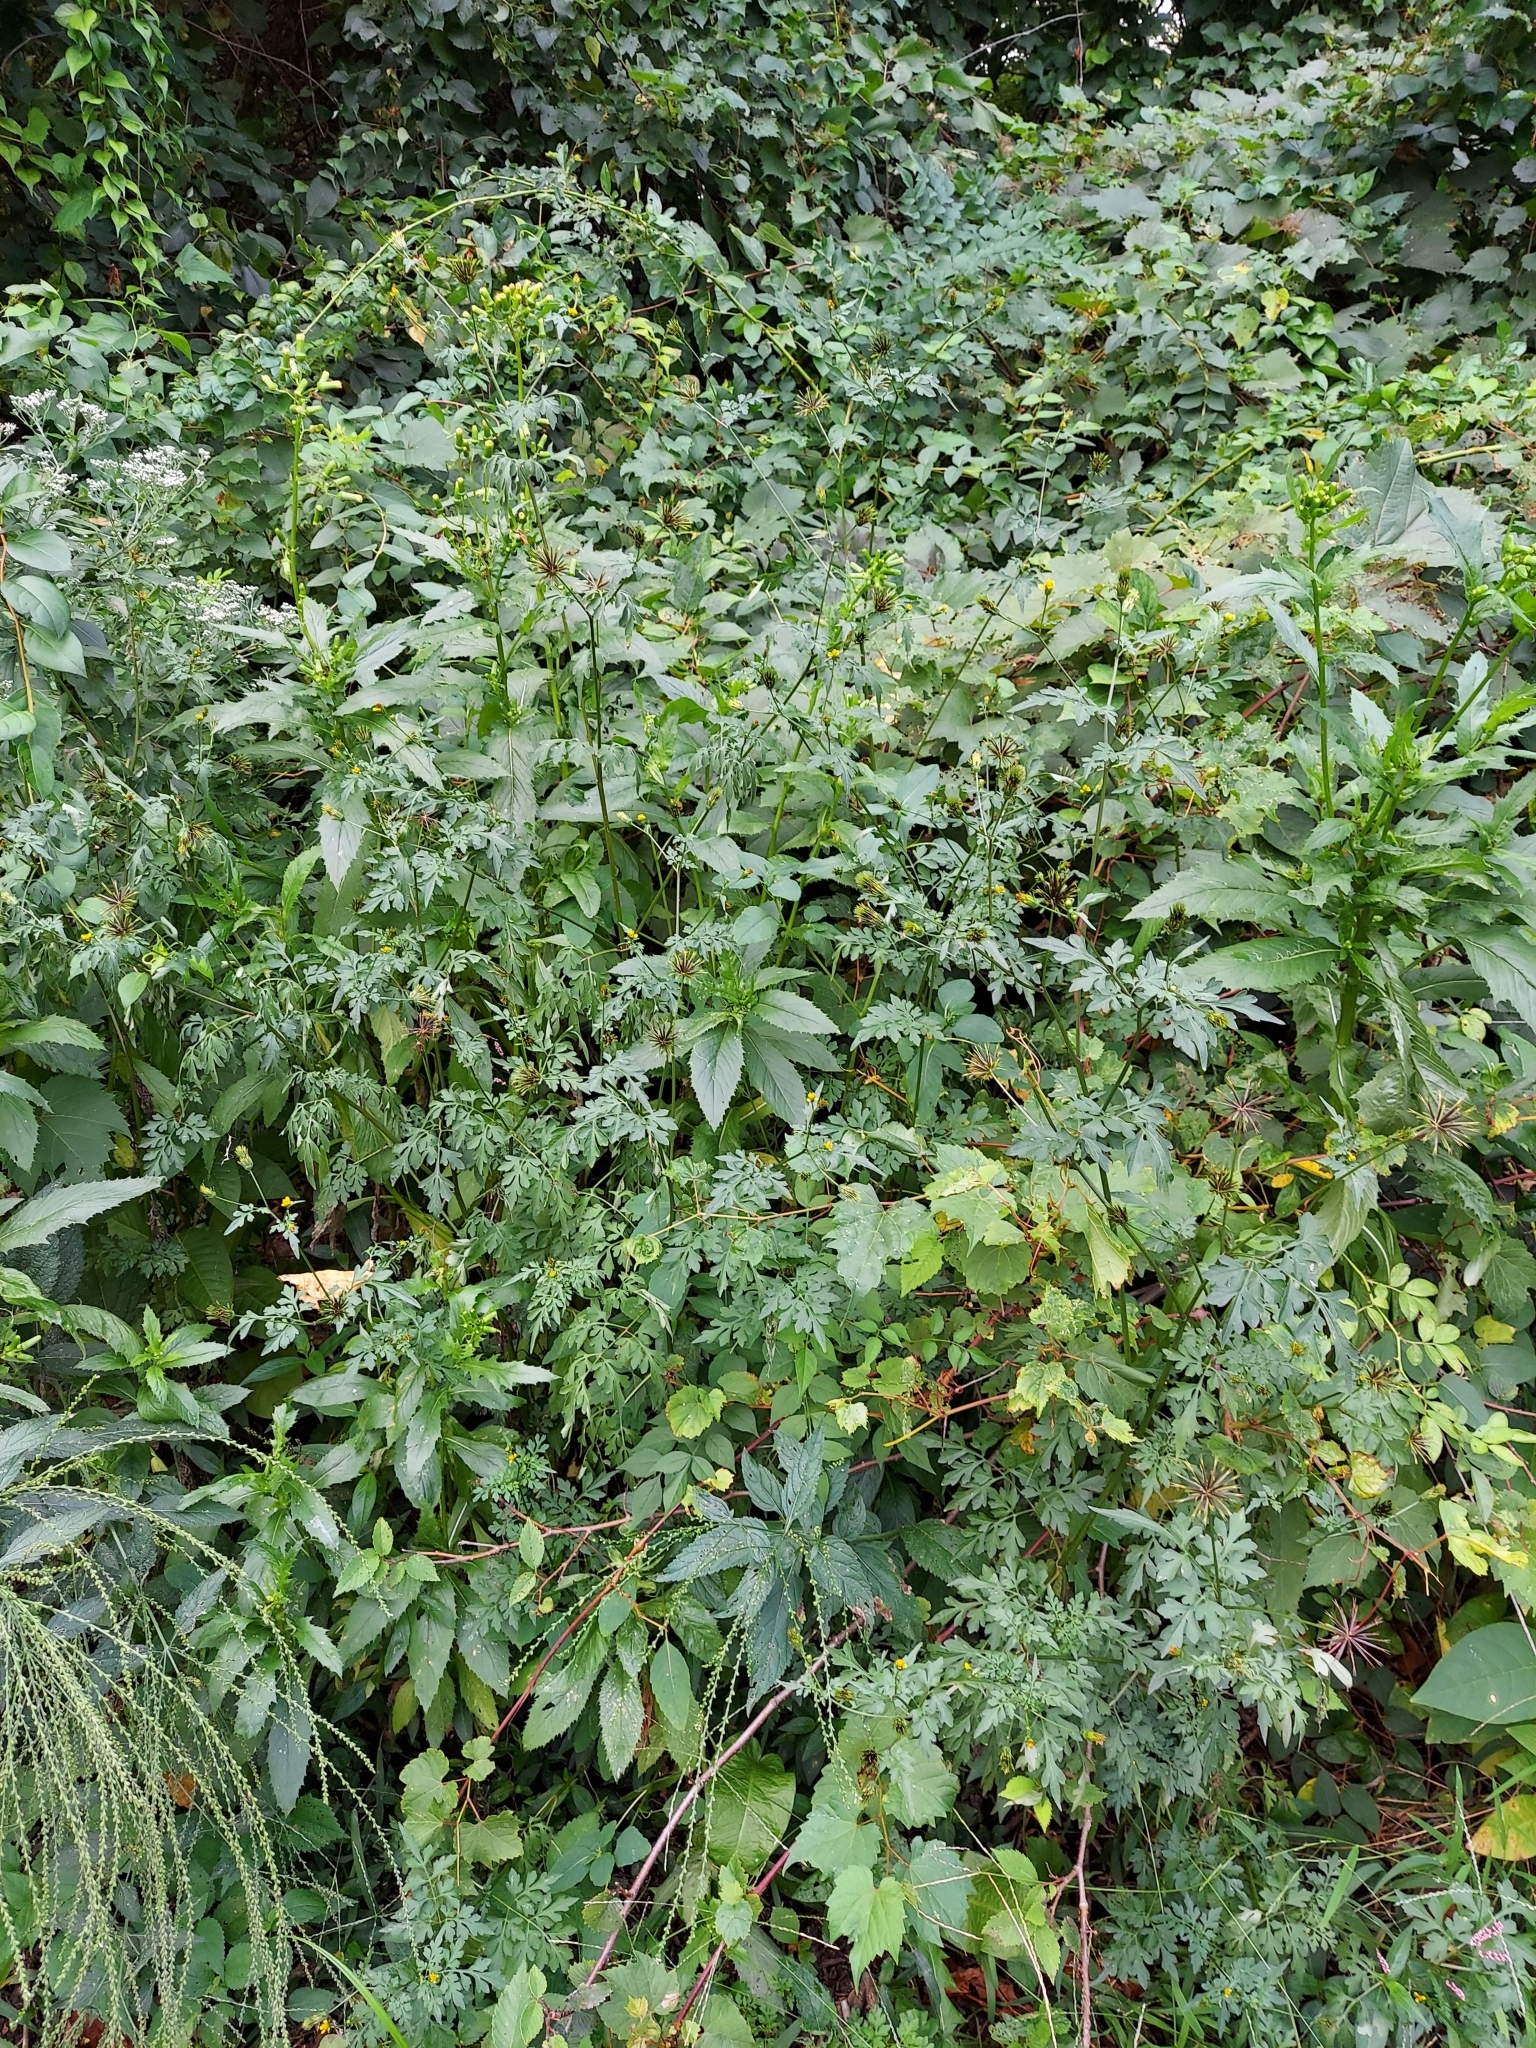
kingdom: Plantae
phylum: Tracheophyta
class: Magnoliopsida
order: Asterales
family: Asteraceae
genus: Bidens
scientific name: Bidens bipinnata
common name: Spanish-needles
